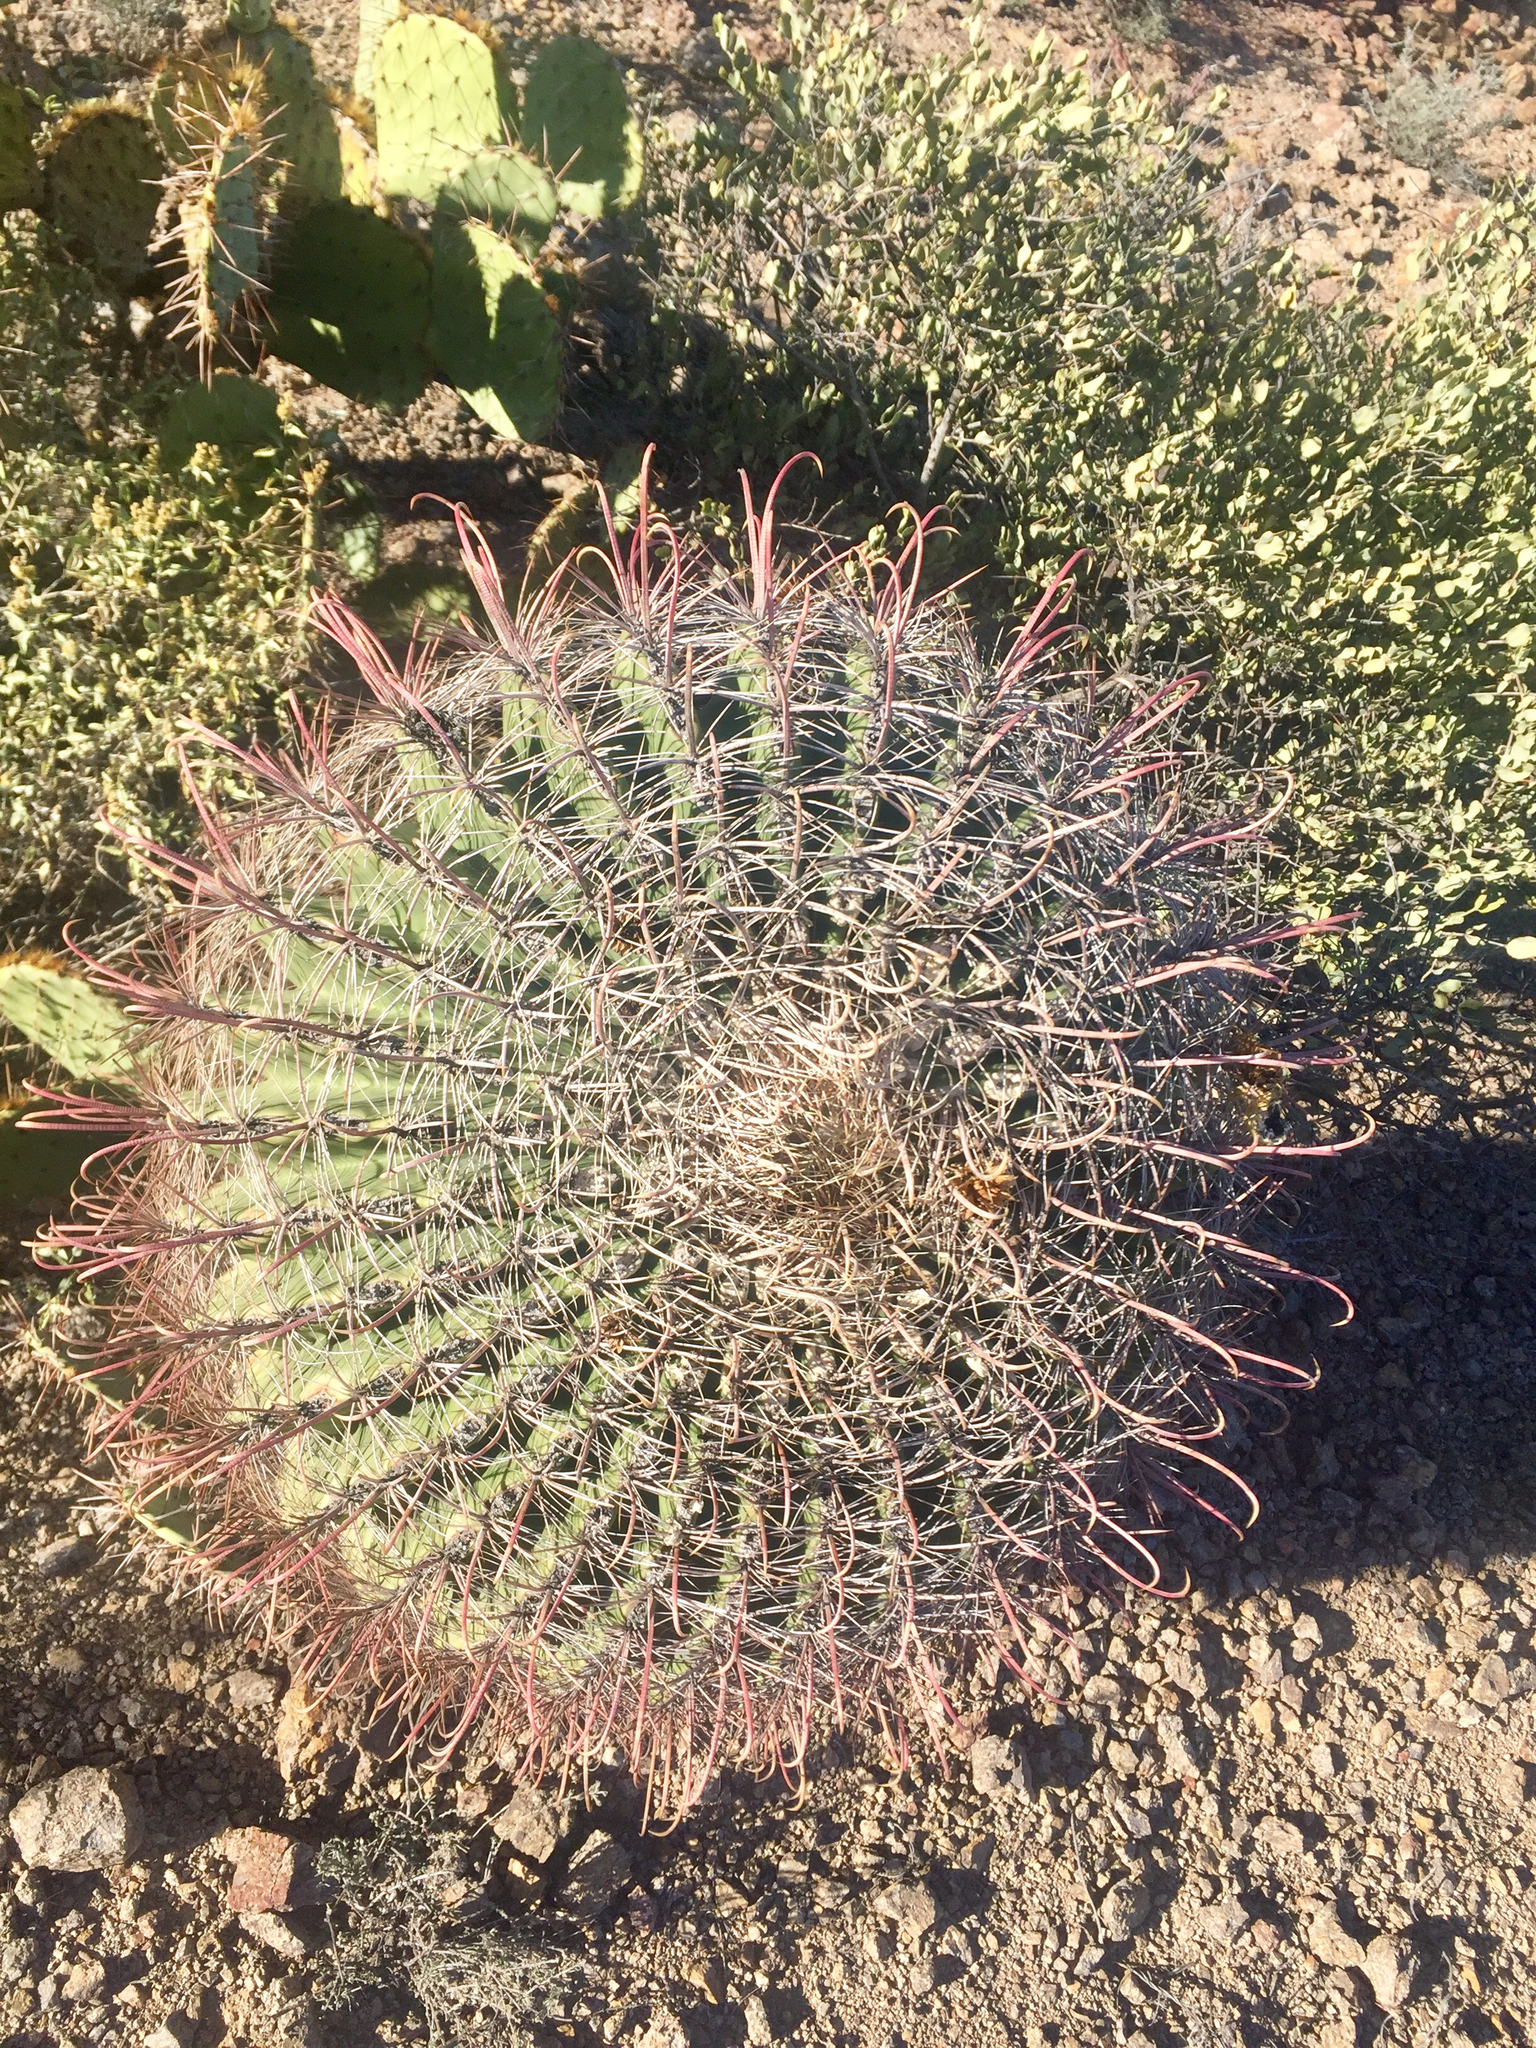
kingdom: Plantae
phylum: Tracheophyta
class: Magnoliopsida
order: Caryophyllales
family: Cactaceae
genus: Ferocactus
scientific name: Ferocactus wislizeni
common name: Candy barrel cactus
